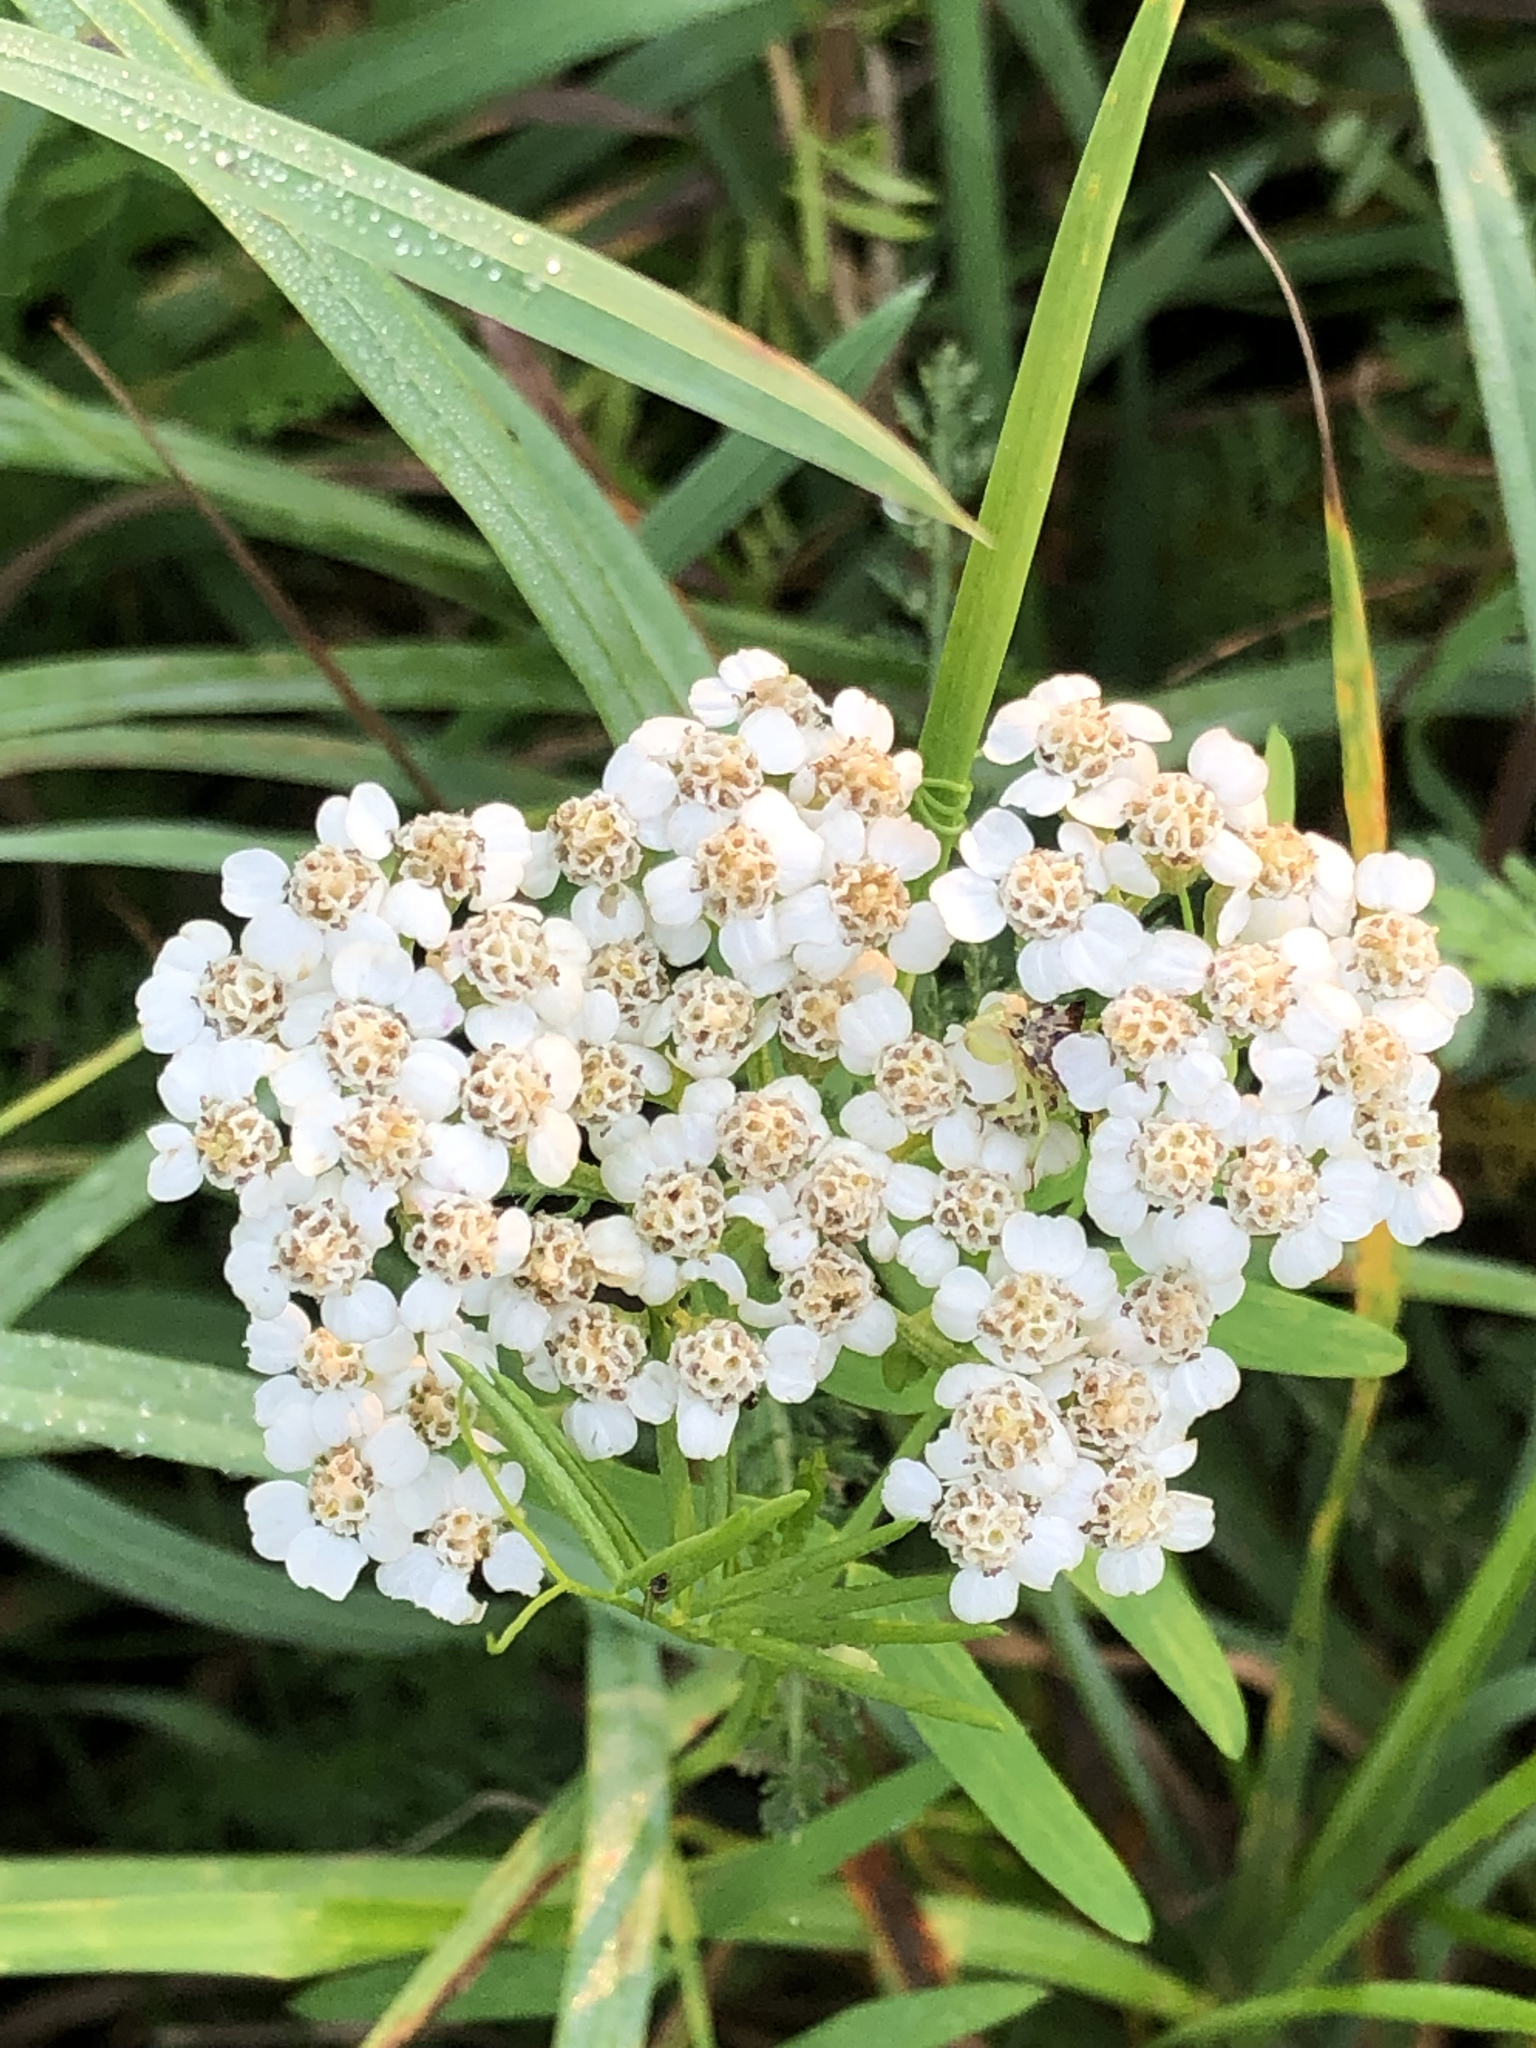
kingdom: Plantae
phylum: Tracheophyta
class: Magnoliopsida
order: Asterales
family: Asteraceae
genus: Achillea
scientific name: Achillea millefolium
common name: Yarrow
